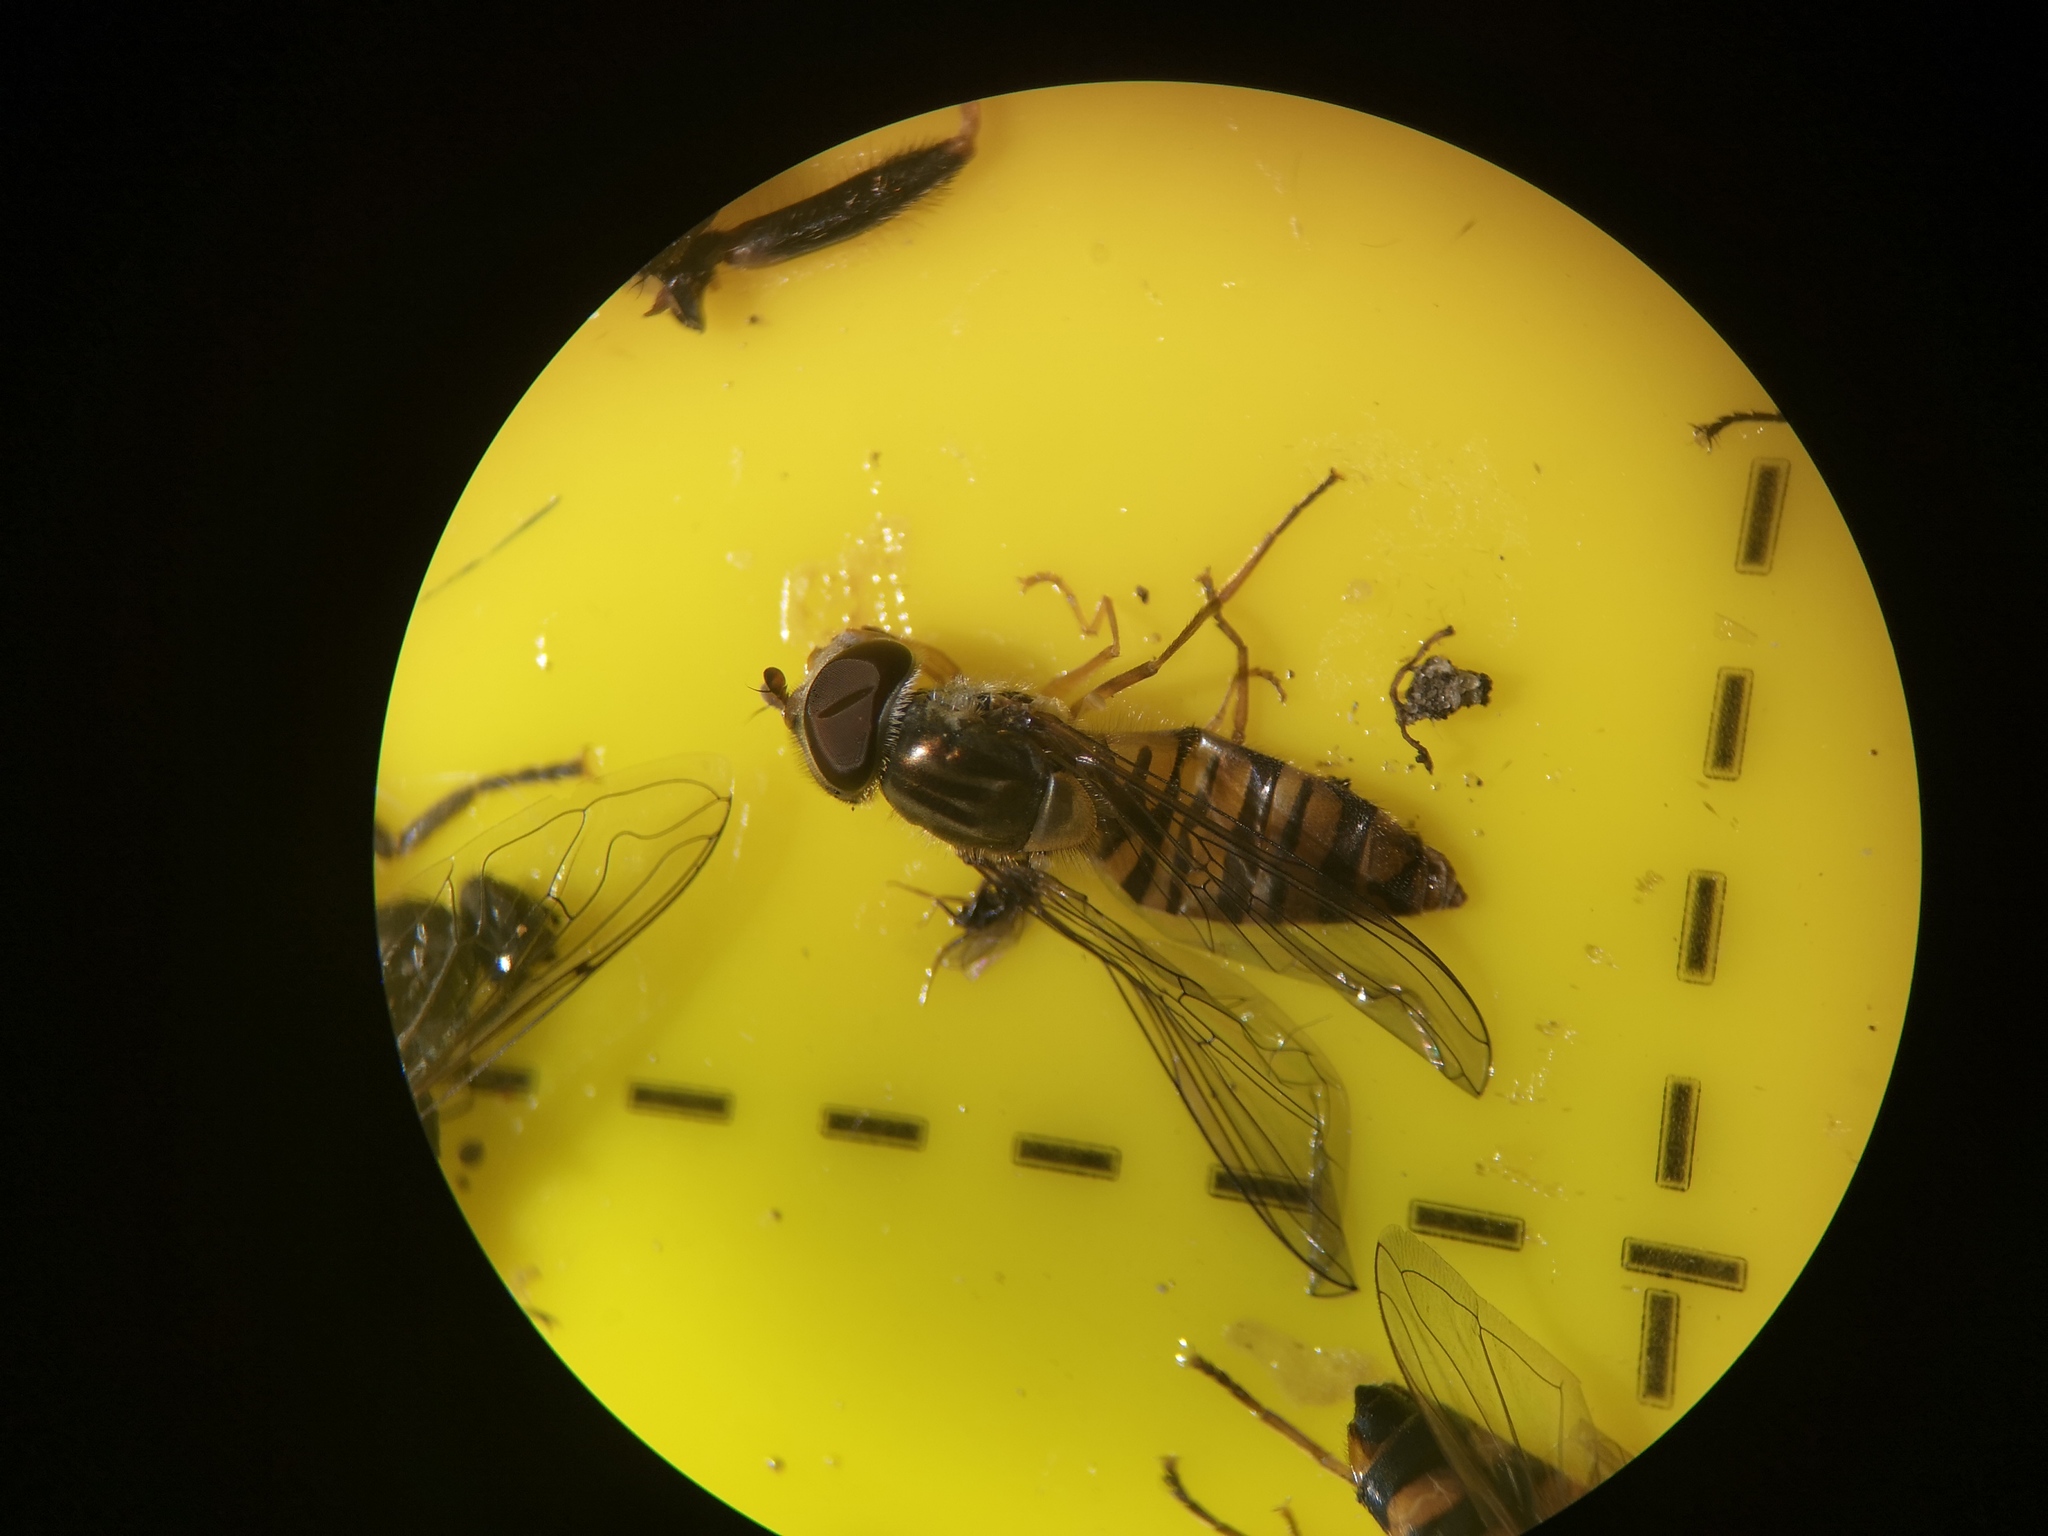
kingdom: Animalia
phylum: Arthropoda
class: Insecta
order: Diptera
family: Syrphidae
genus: Episyrphus
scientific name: Episyrphus balteatus
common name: Marmalade hoverfly
